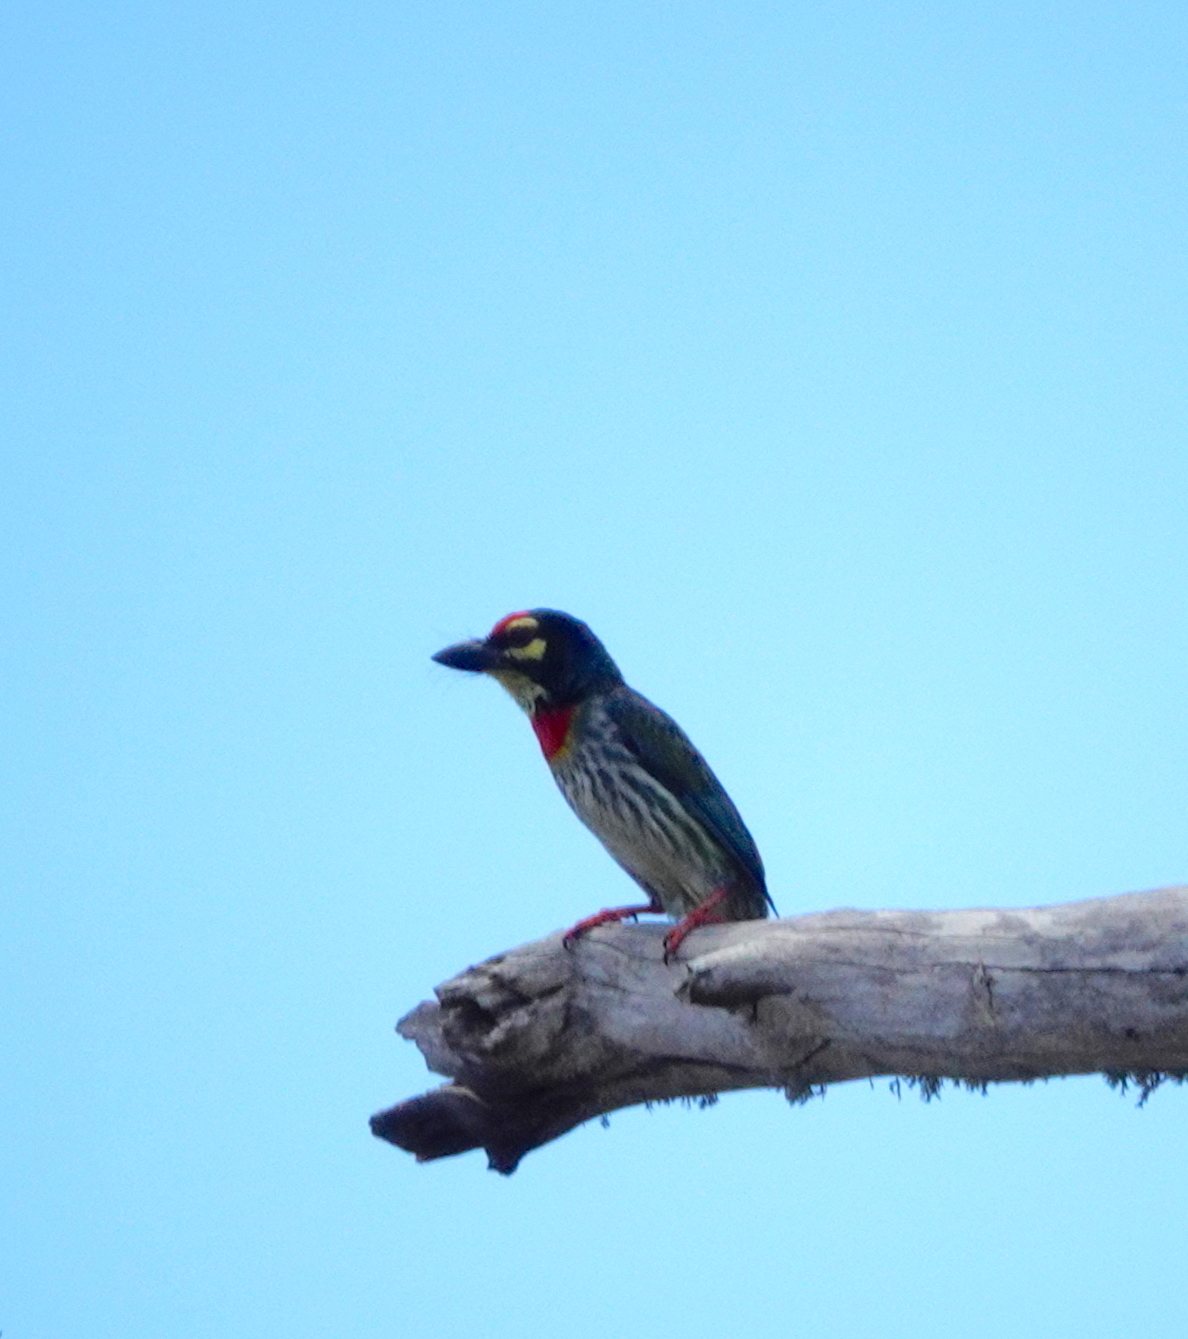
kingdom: Animalia
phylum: Chordata
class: Aves
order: Piciformes
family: Megalaimidae
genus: Psilopogon
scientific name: Psilopogon haemacephalus
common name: Coppersmith barbet
